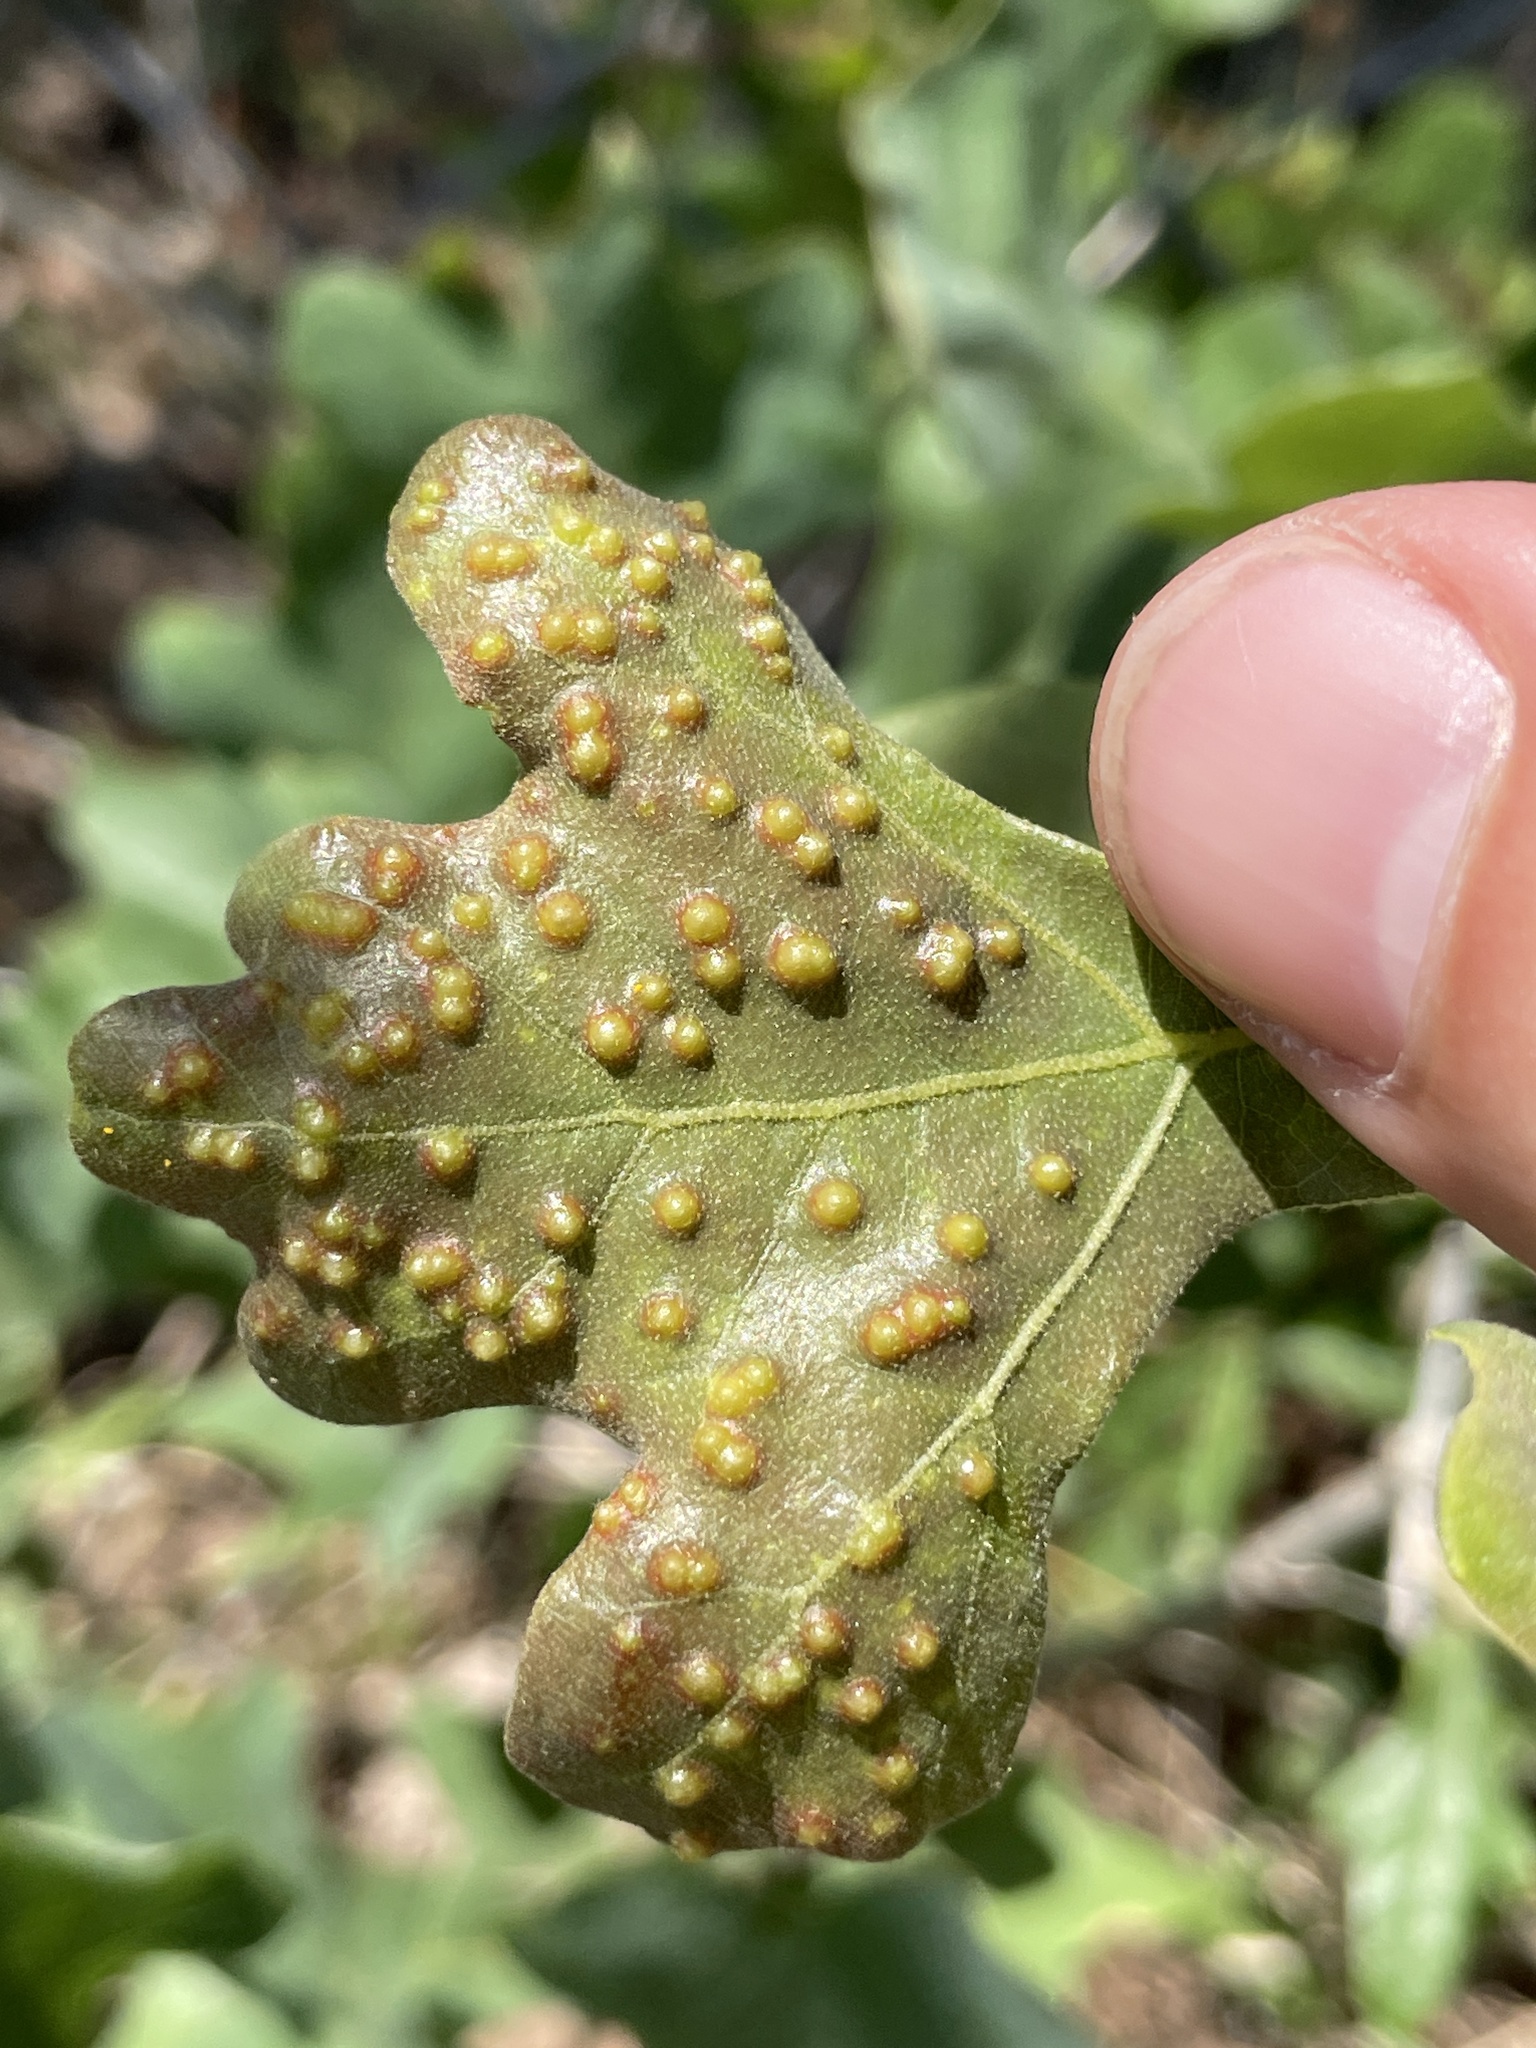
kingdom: Animalia
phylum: Arthropoda
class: Insecta
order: Hymenoptera
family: Cynipidae
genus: Neuroterus
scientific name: Neuroterus quercusverrucarum
